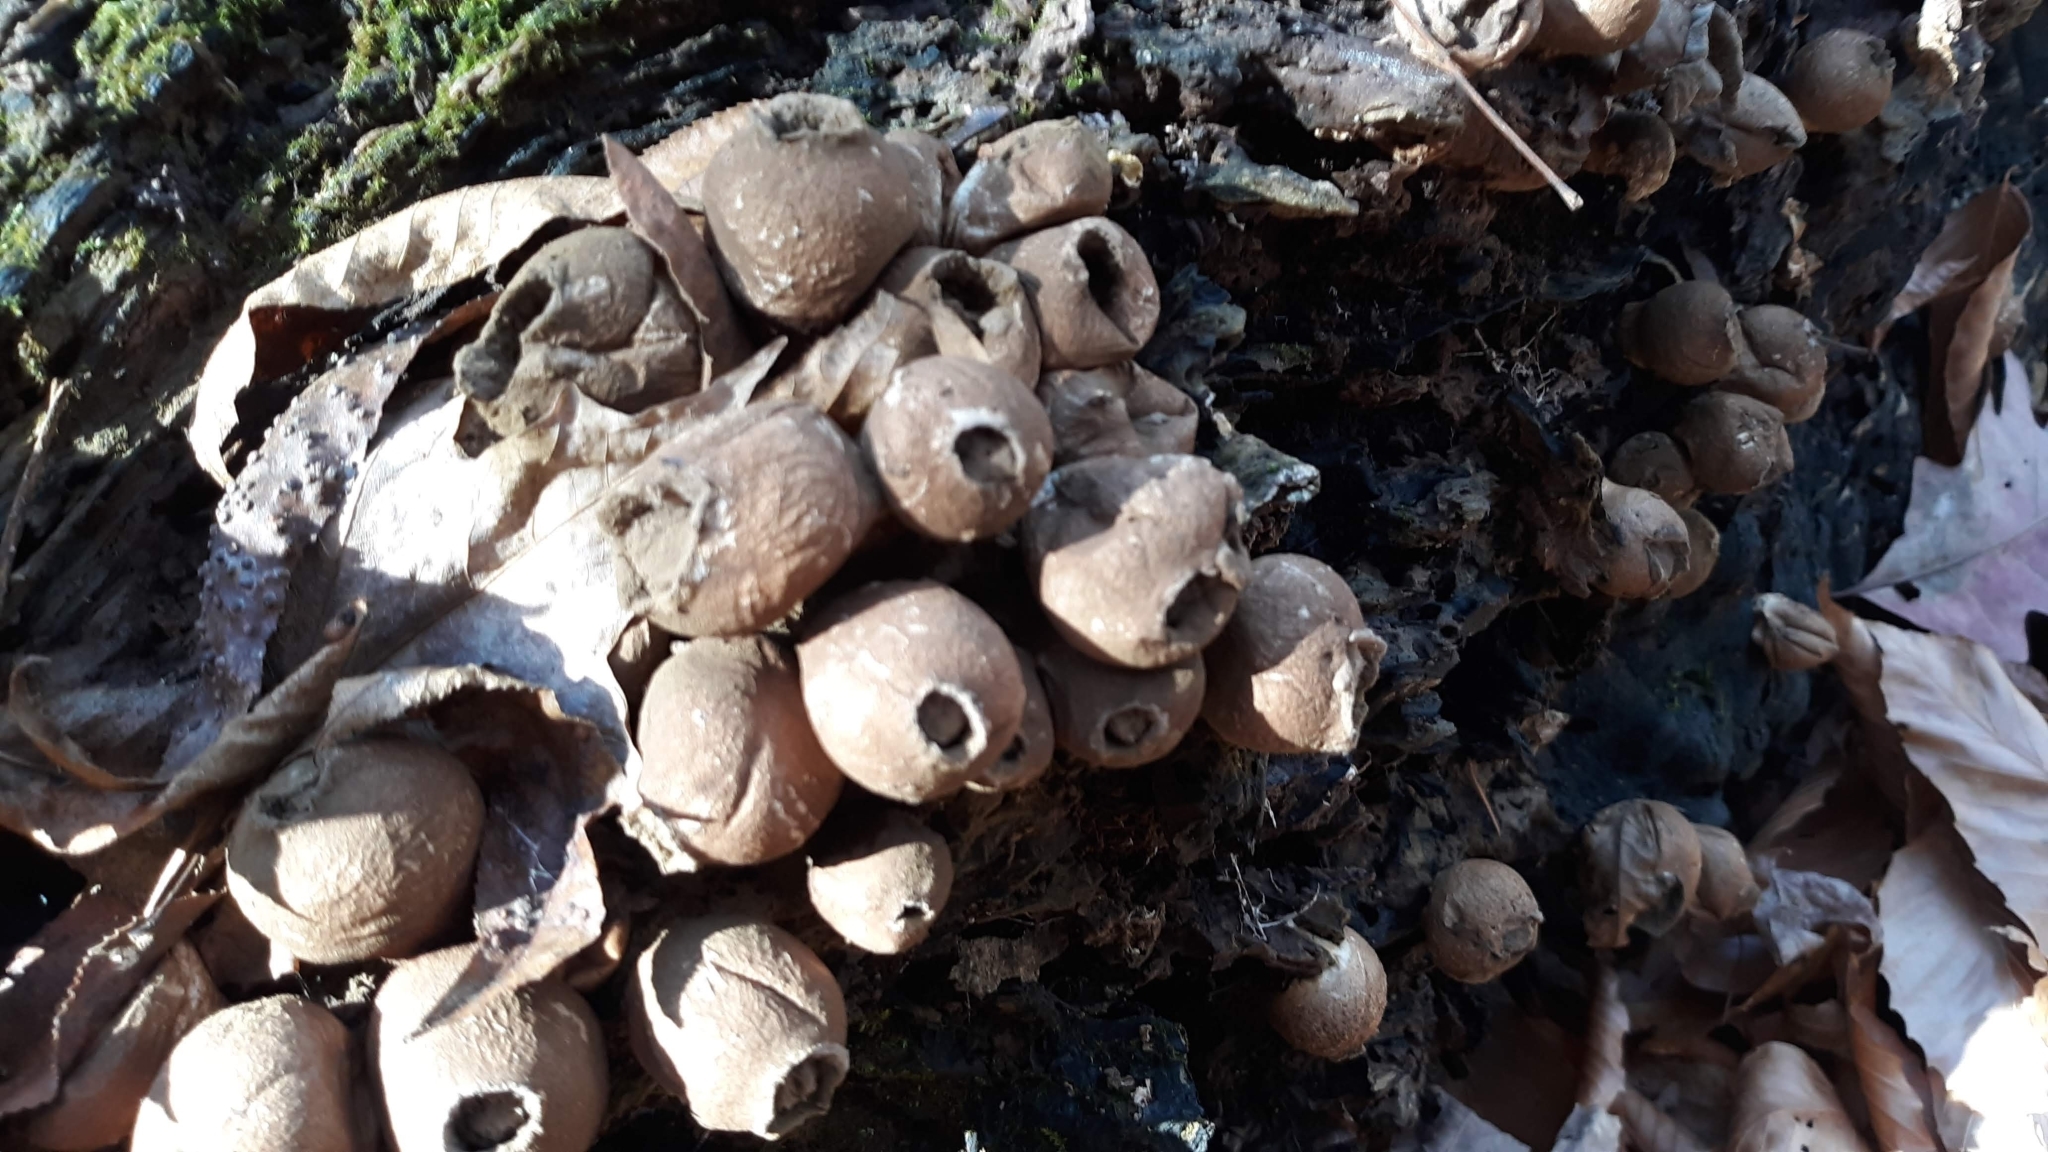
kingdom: Fungi
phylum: Basidiomycota
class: Agaricomycetes
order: Agaricales
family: Lycoperdaceae
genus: Apioperdon
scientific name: Apioperdon pyriforme
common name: Pear-shaped puffball
